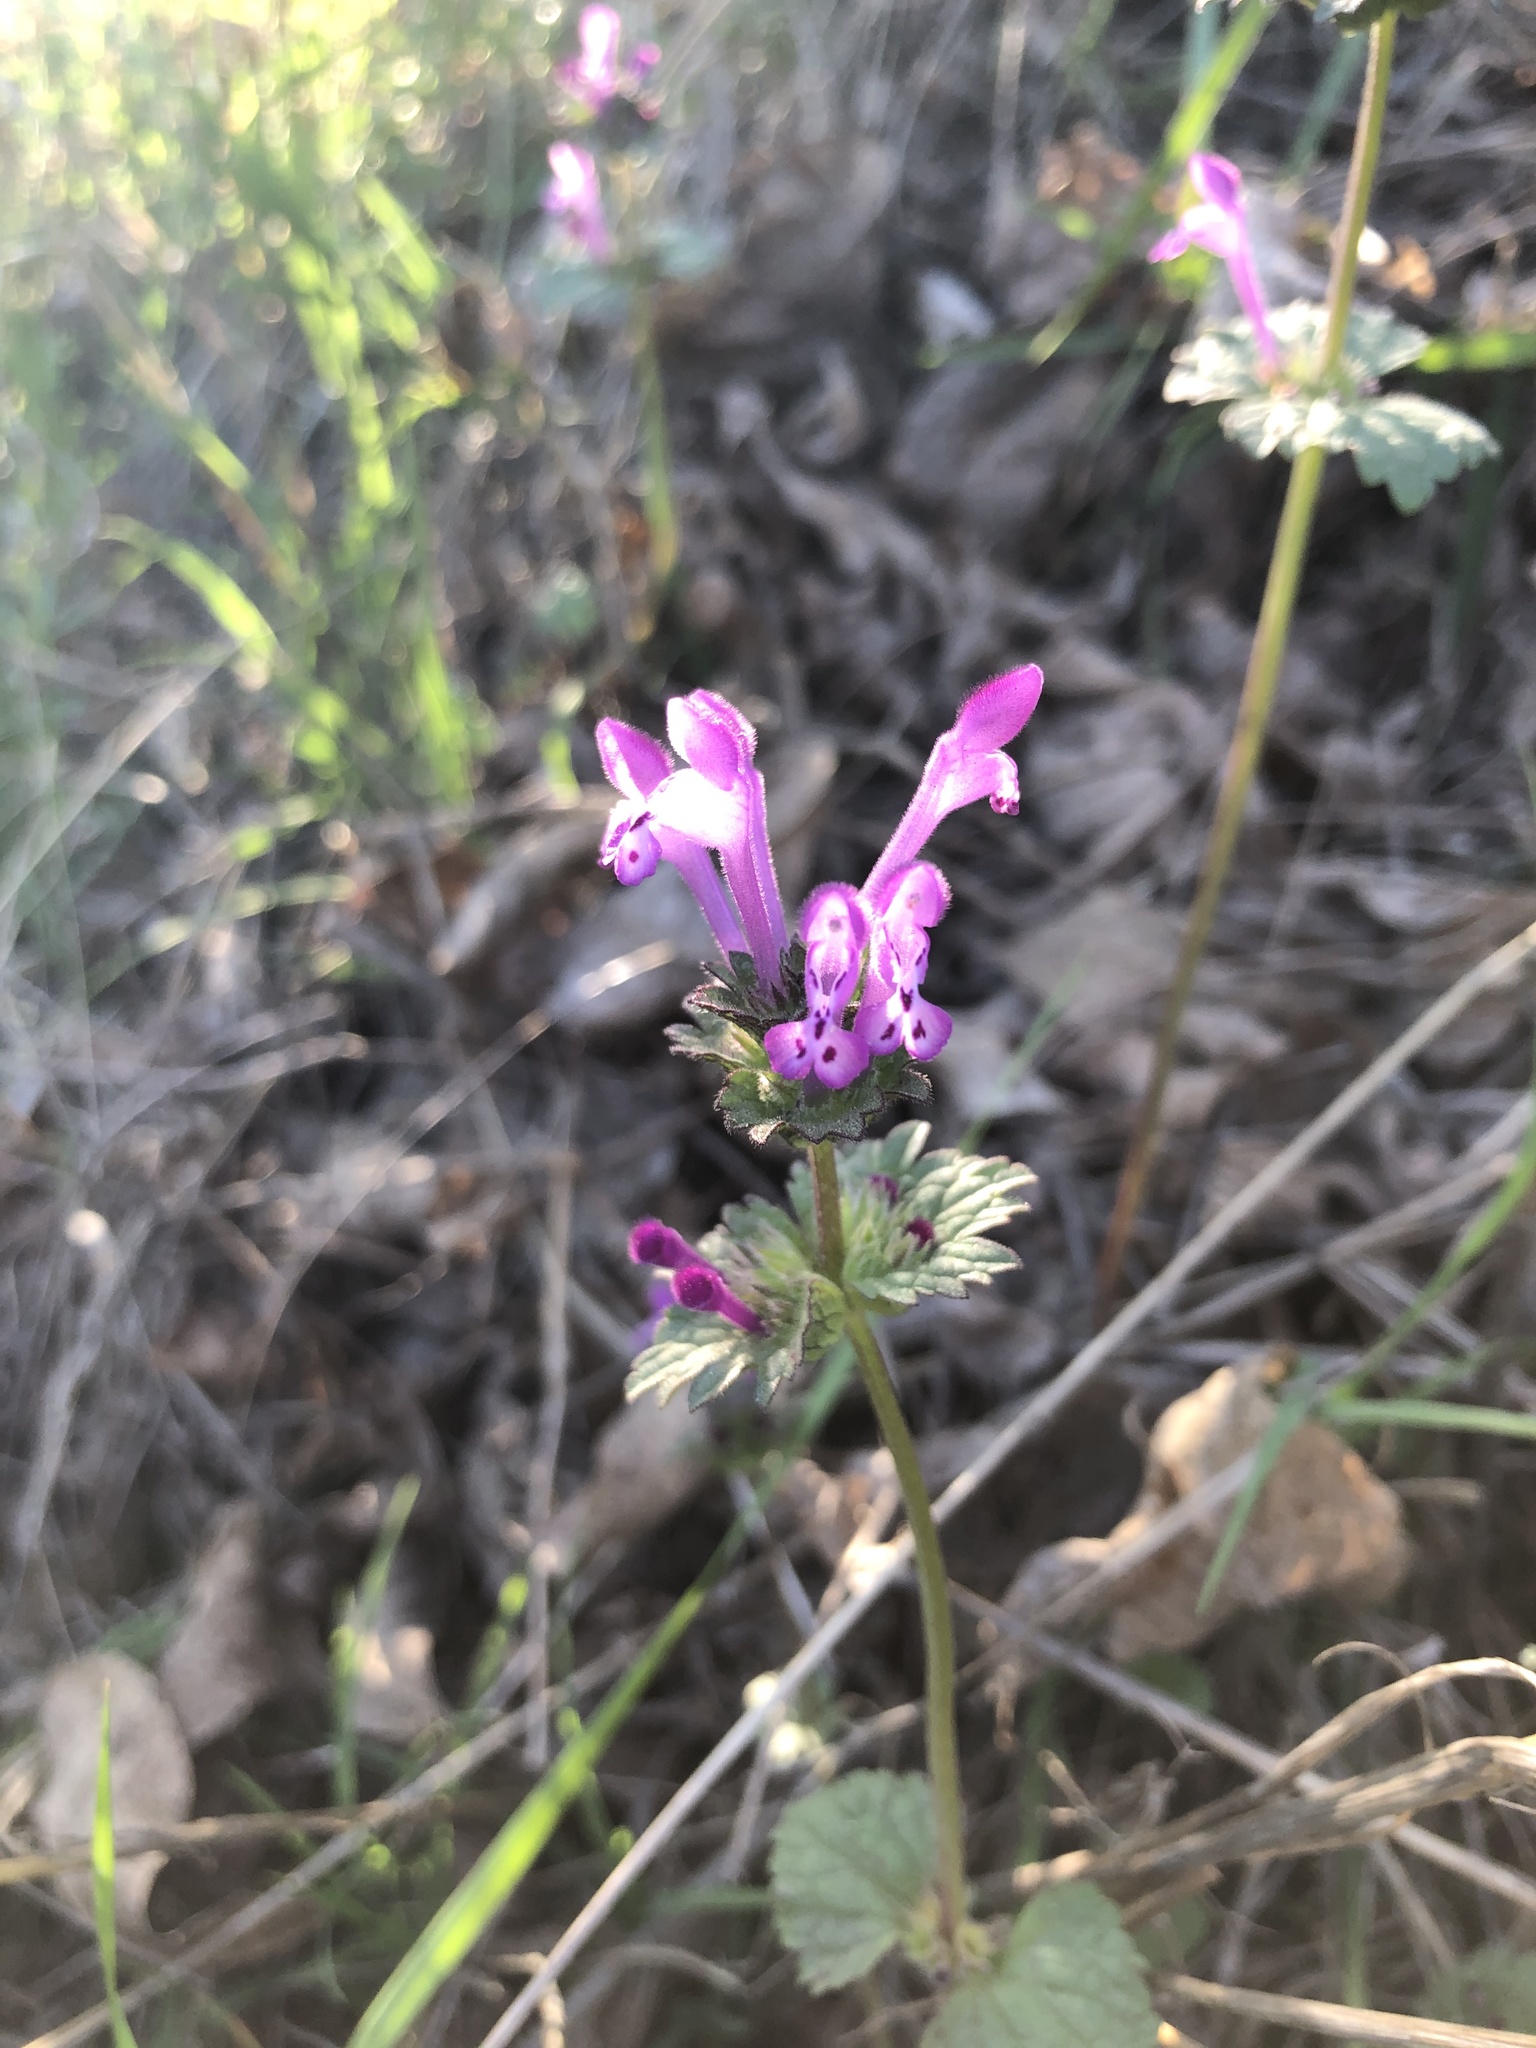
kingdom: Plantae
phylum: Tracheophyta
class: Magnoliopsida
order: Lamiales
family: Lamiaceae
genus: Lamium
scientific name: Lamium amplexicaule
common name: Henbit dead-nettle
